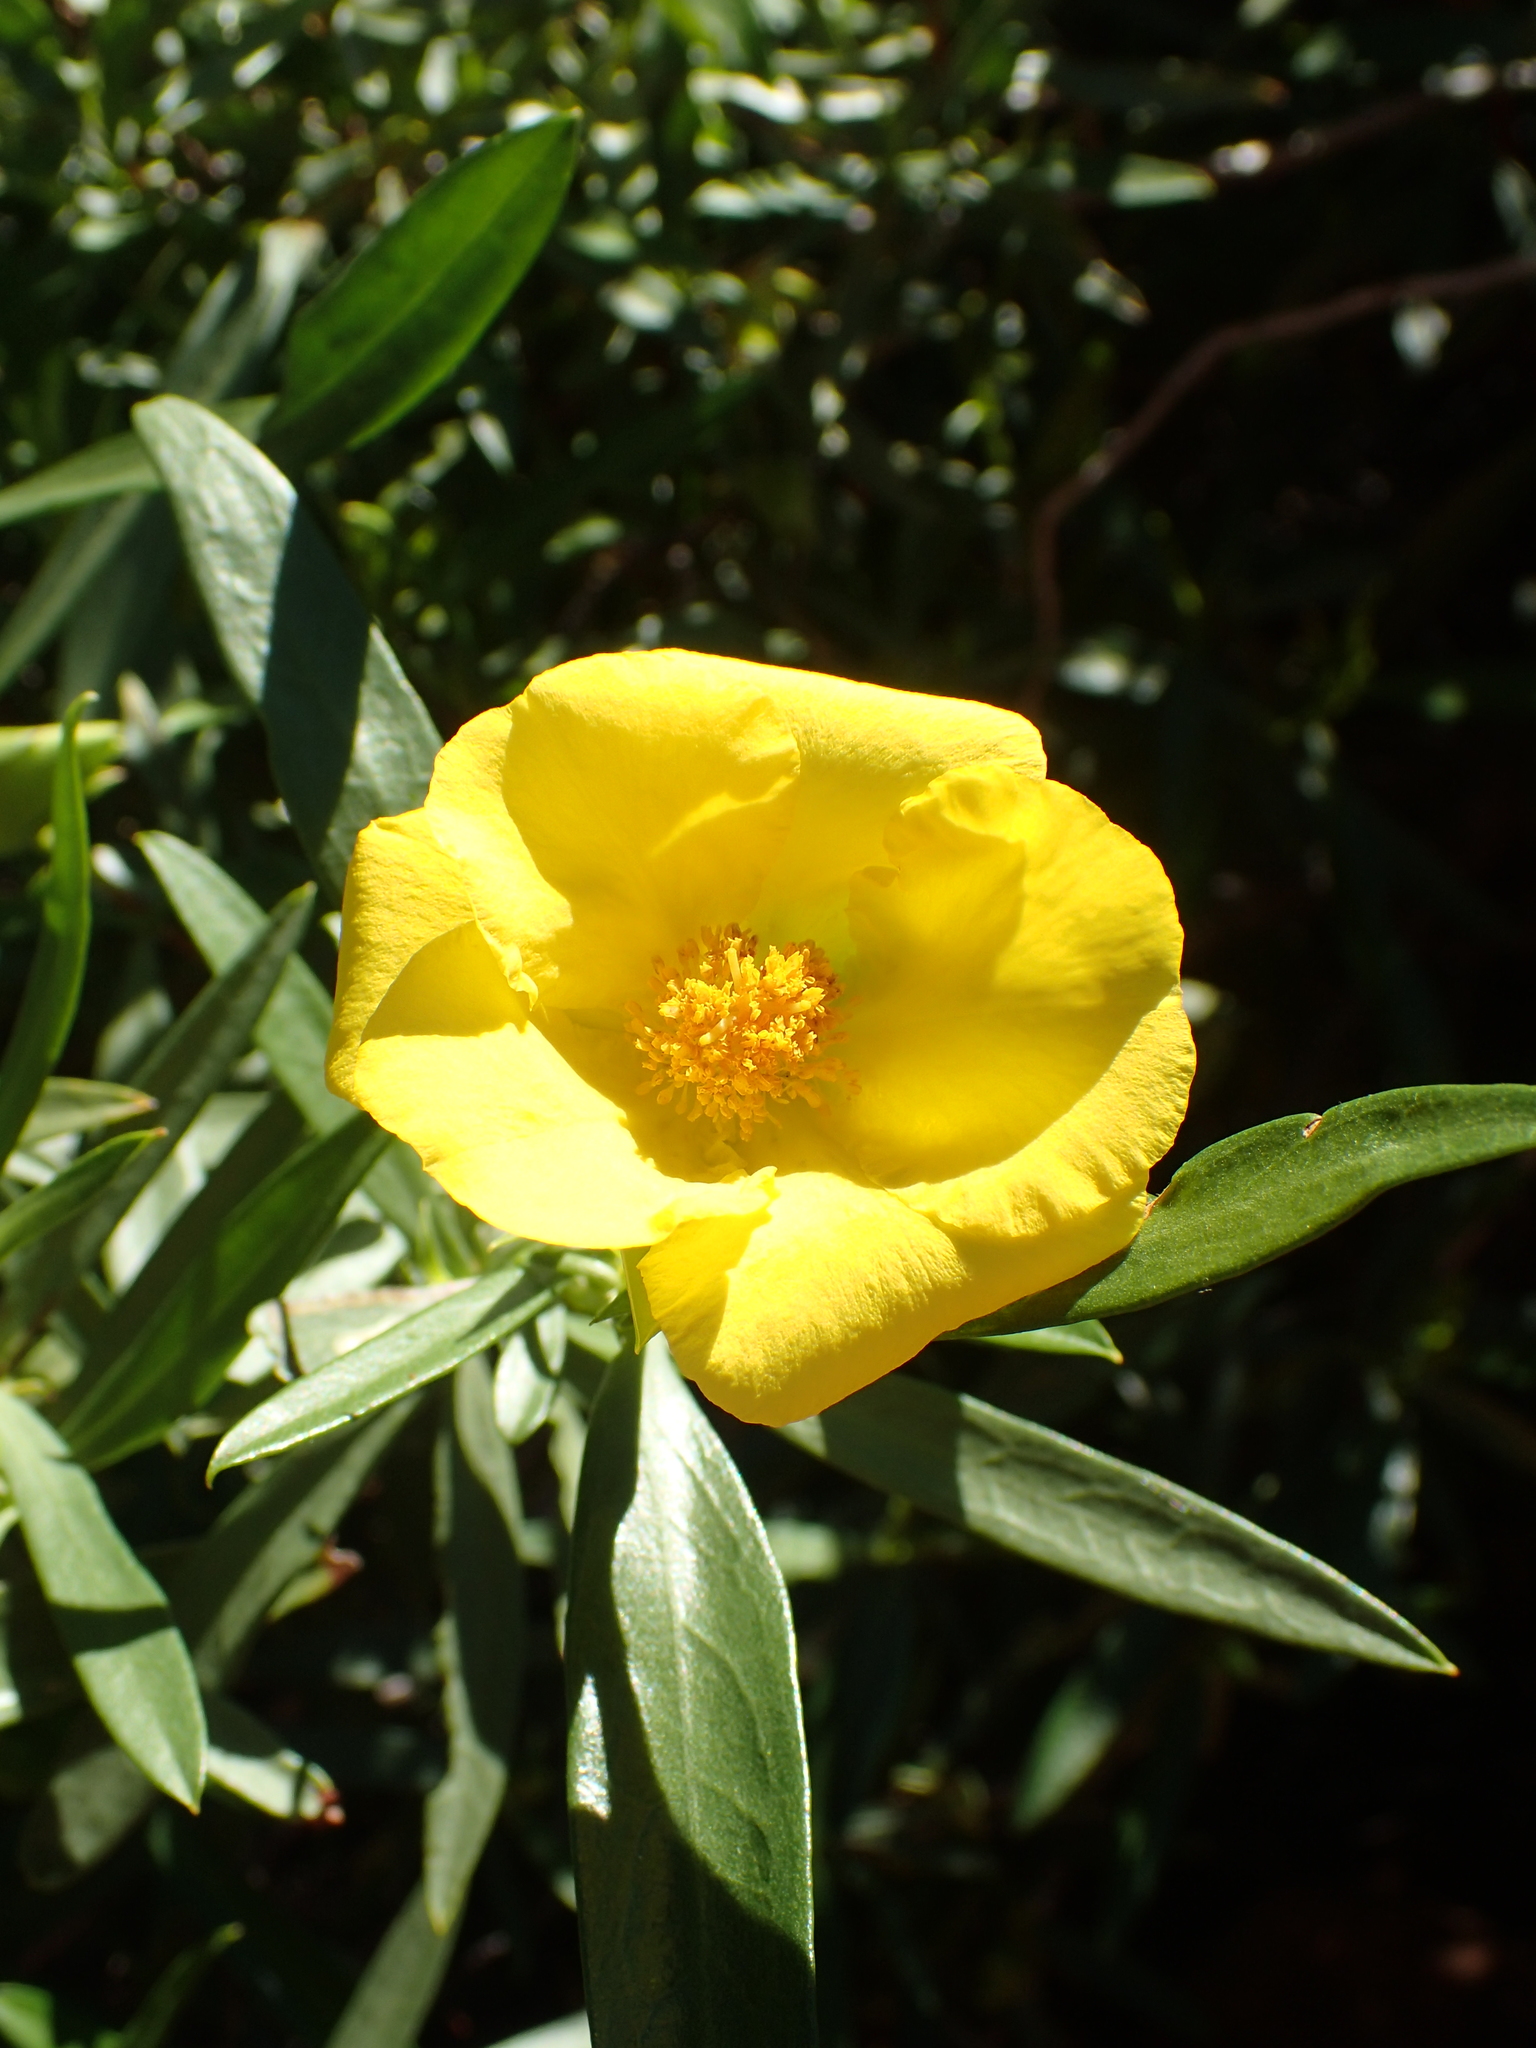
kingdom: Plantae
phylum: Tracheophyta
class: Magnoliopsida
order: Dilleniales
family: Dilleniaceae
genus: Hibbertia
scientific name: Hibbertia glaberrima
